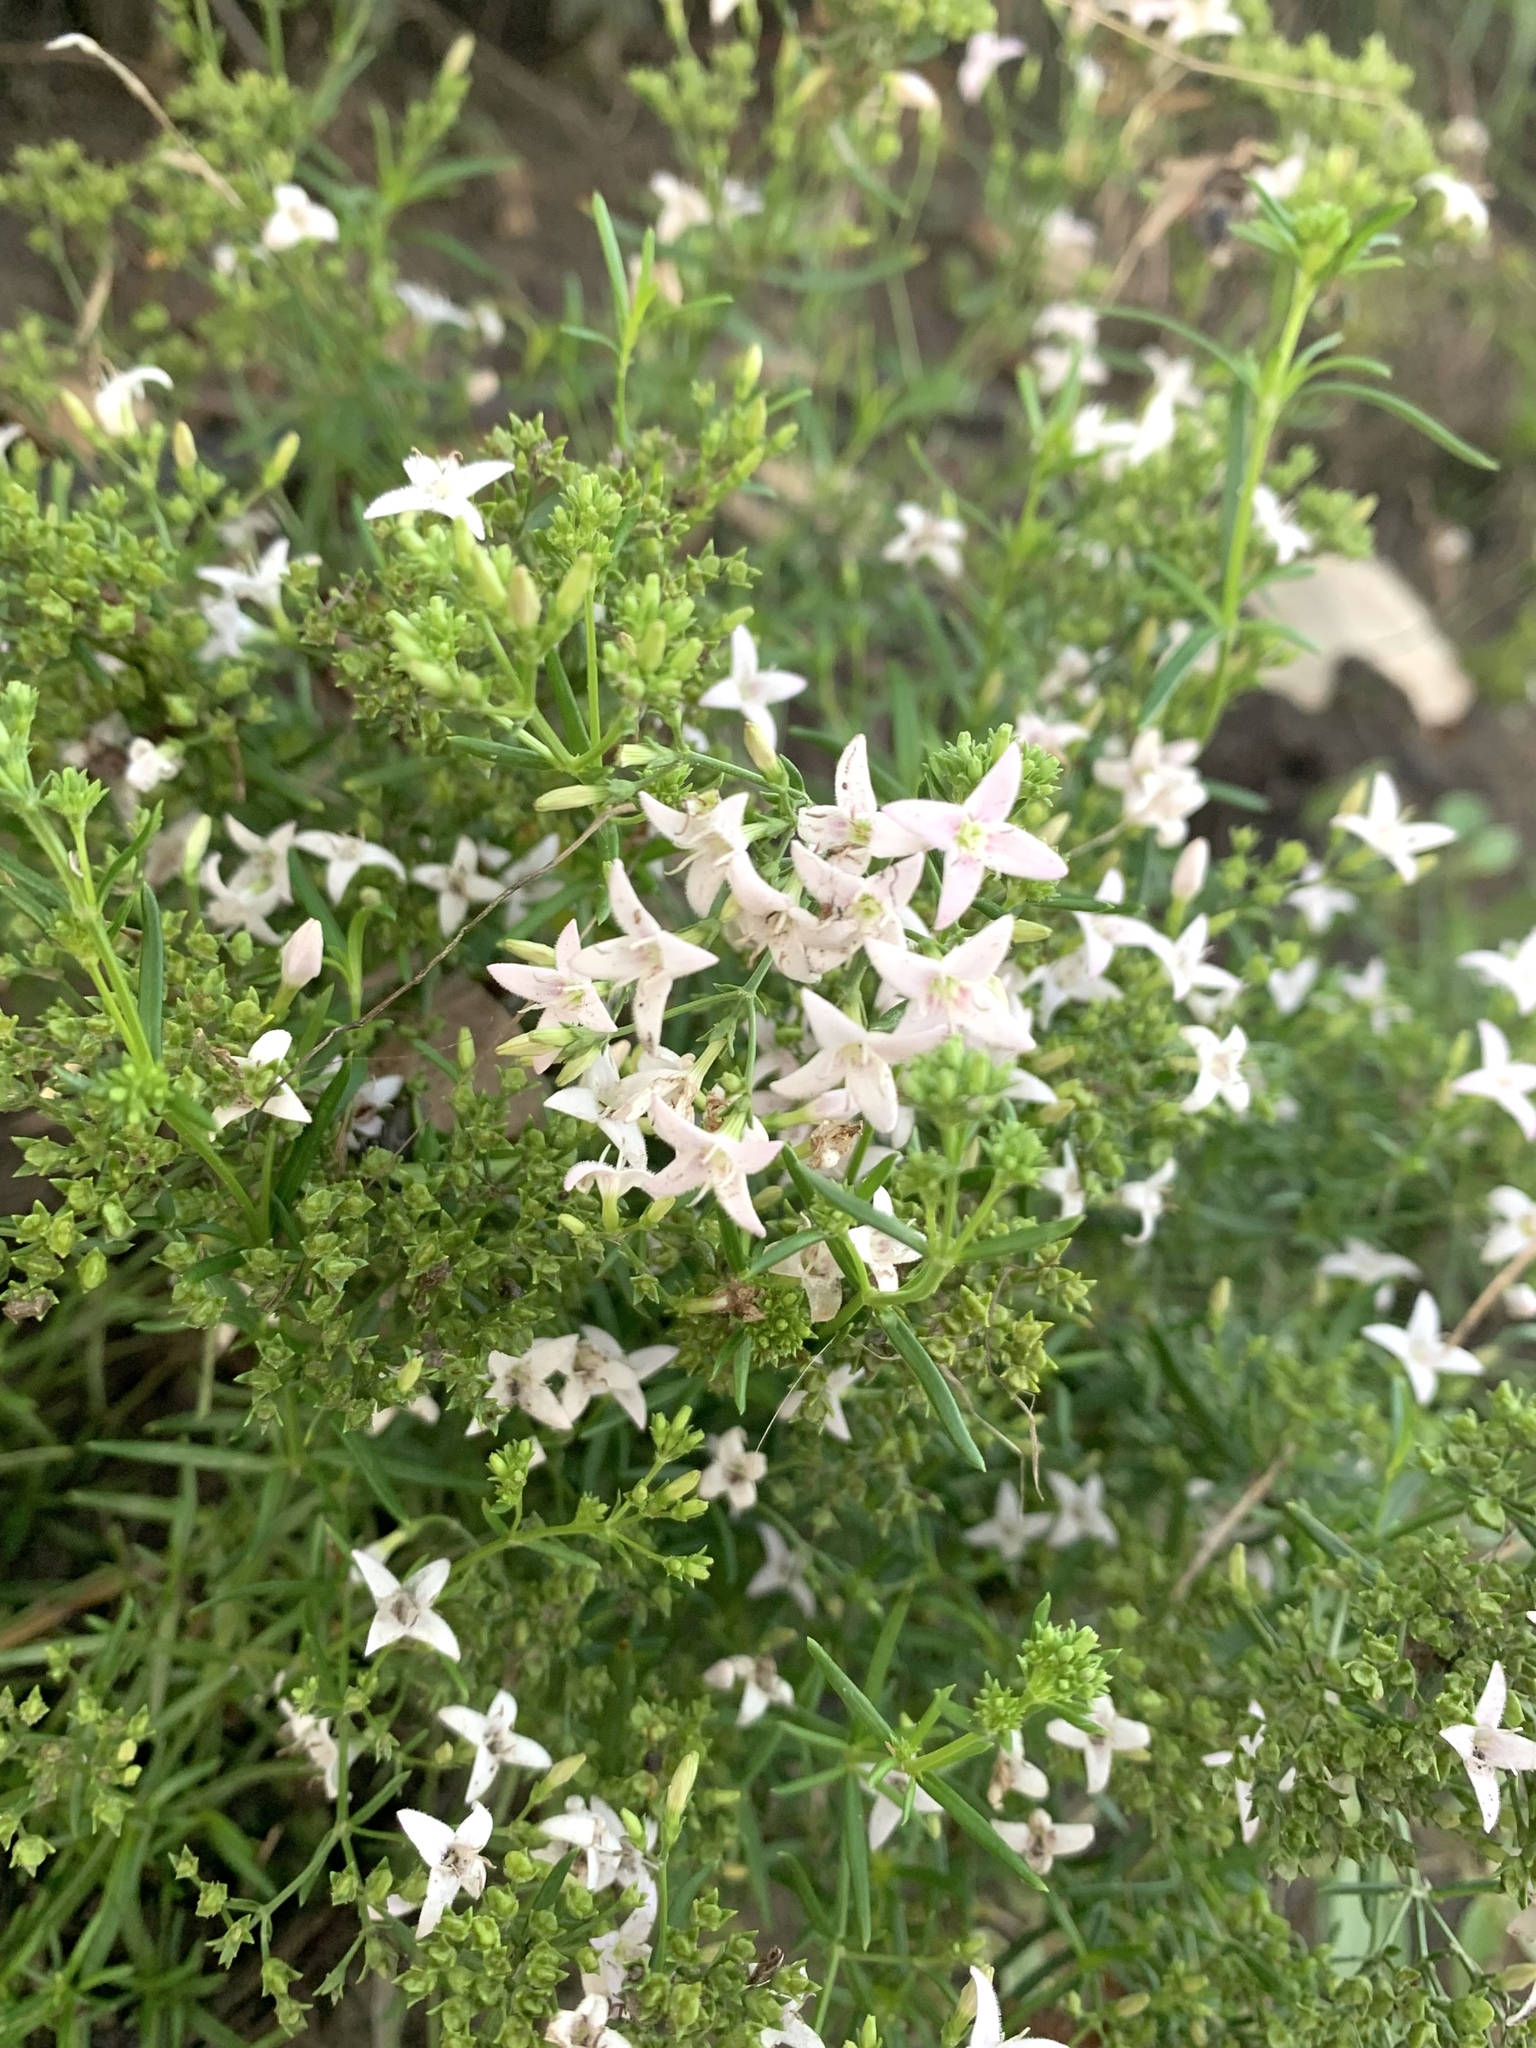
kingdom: Plantae
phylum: Tracheophyta
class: Magnoliopsida
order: Gentianales
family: Rubiaceae
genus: Stenaria
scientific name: Stenaria nigricans
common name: Diamondflowers
